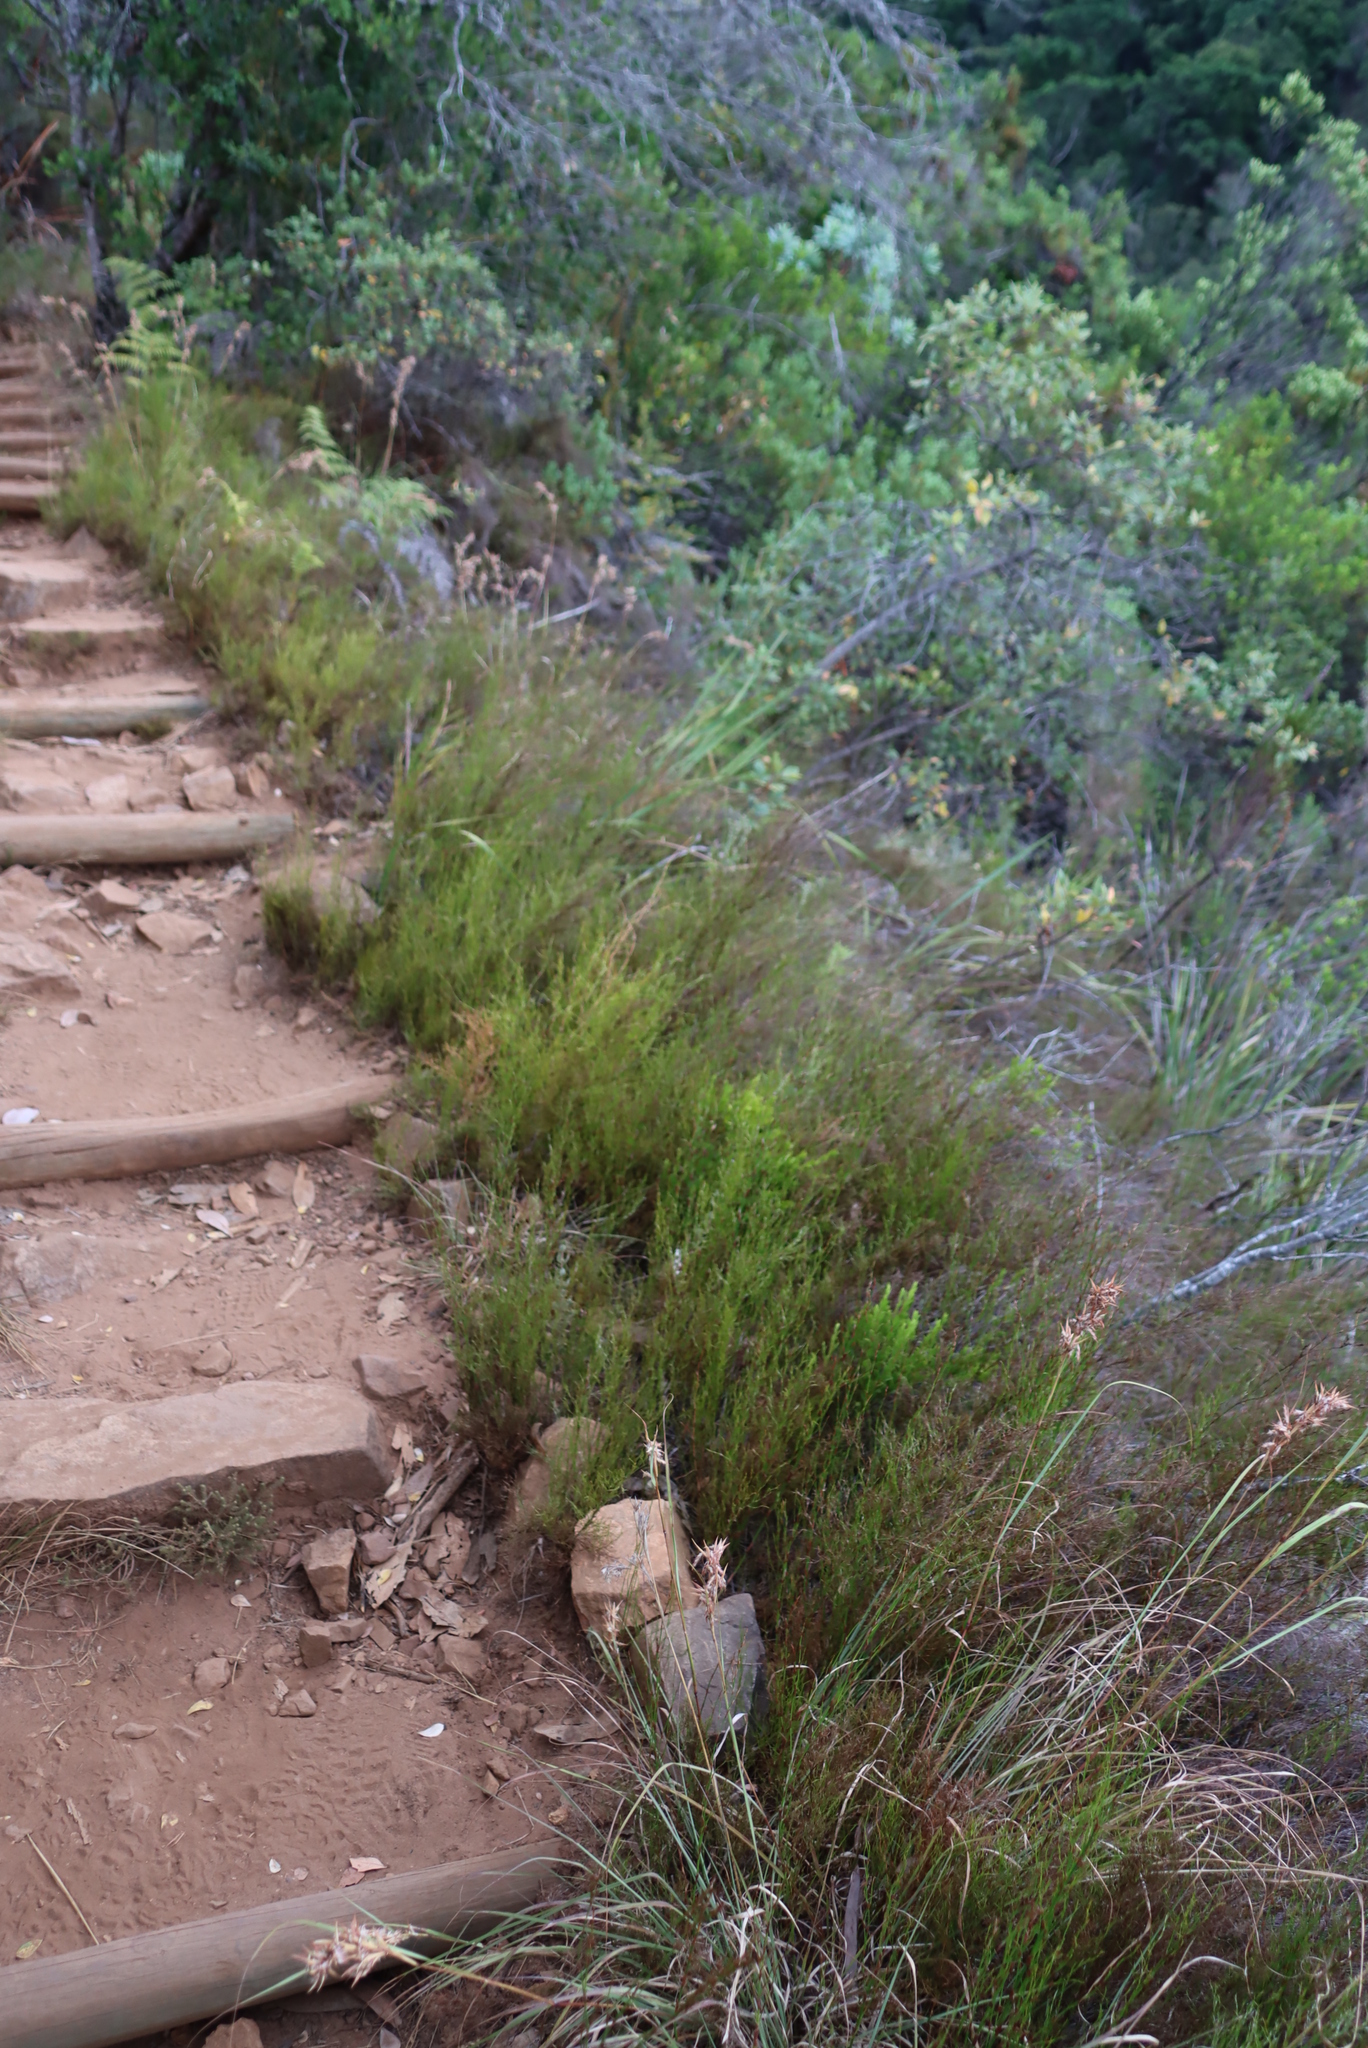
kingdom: Plantae
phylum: Tracheophyta
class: Liliopsida
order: Poales
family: Restionaceae
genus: Restio
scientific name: Restio luxurians
